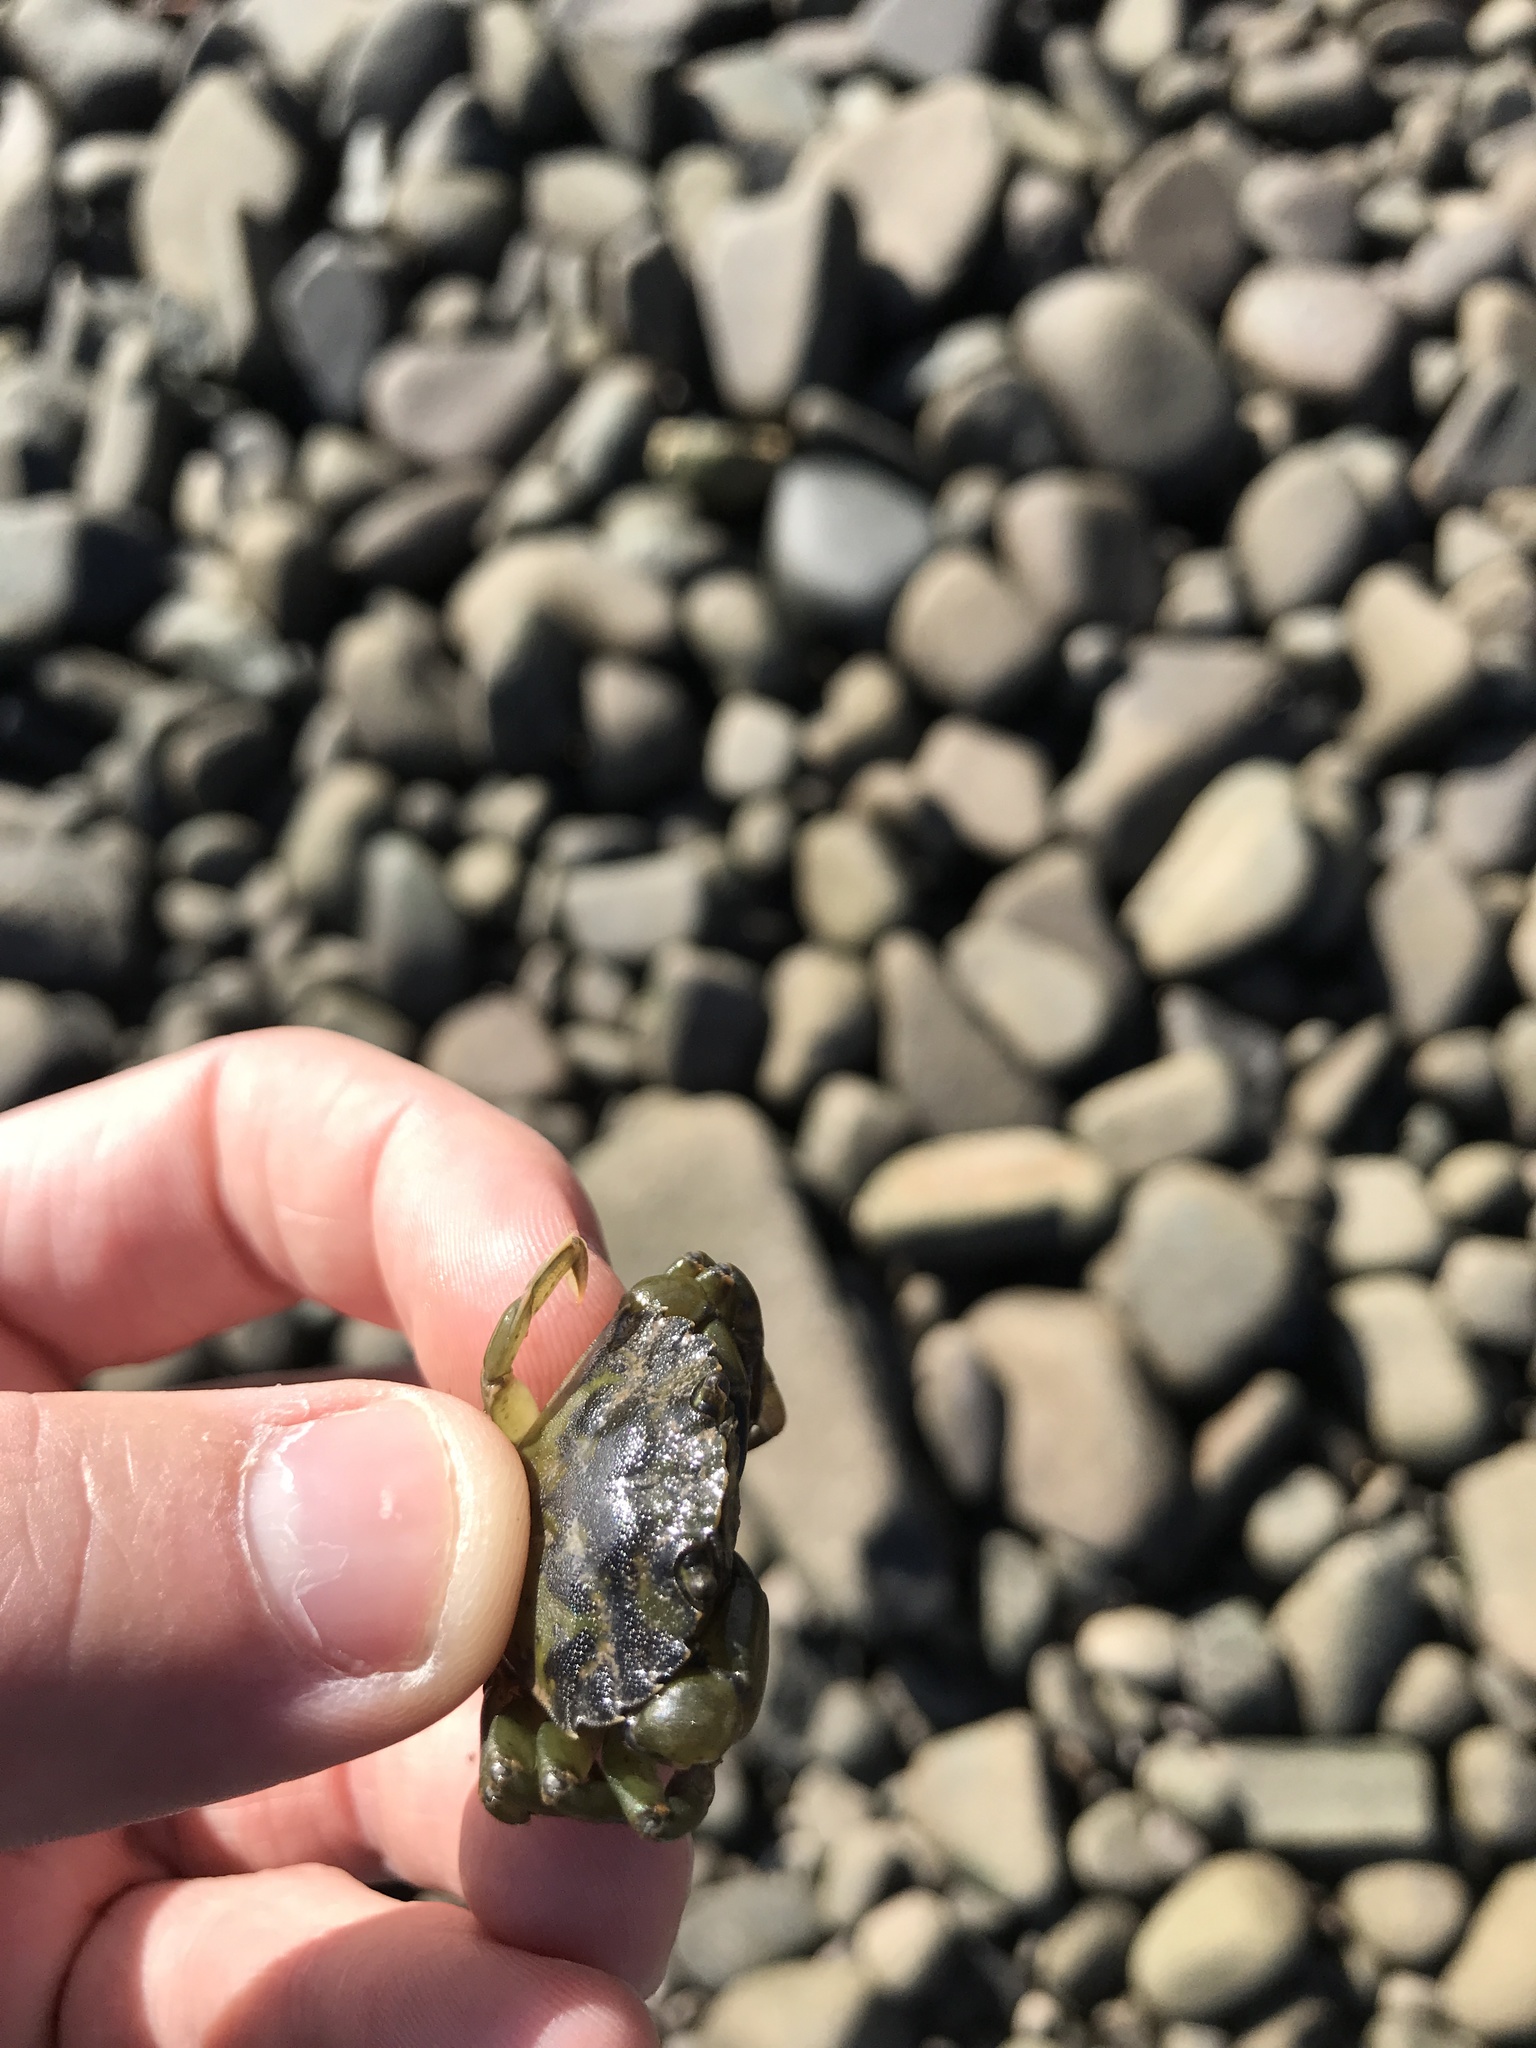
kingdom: Animalia
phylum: Arthropoda
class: Malacostraca
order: Decapoda
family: Carcinidae
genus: Carcinus
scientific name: Carcinus maenas
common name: European green crab
